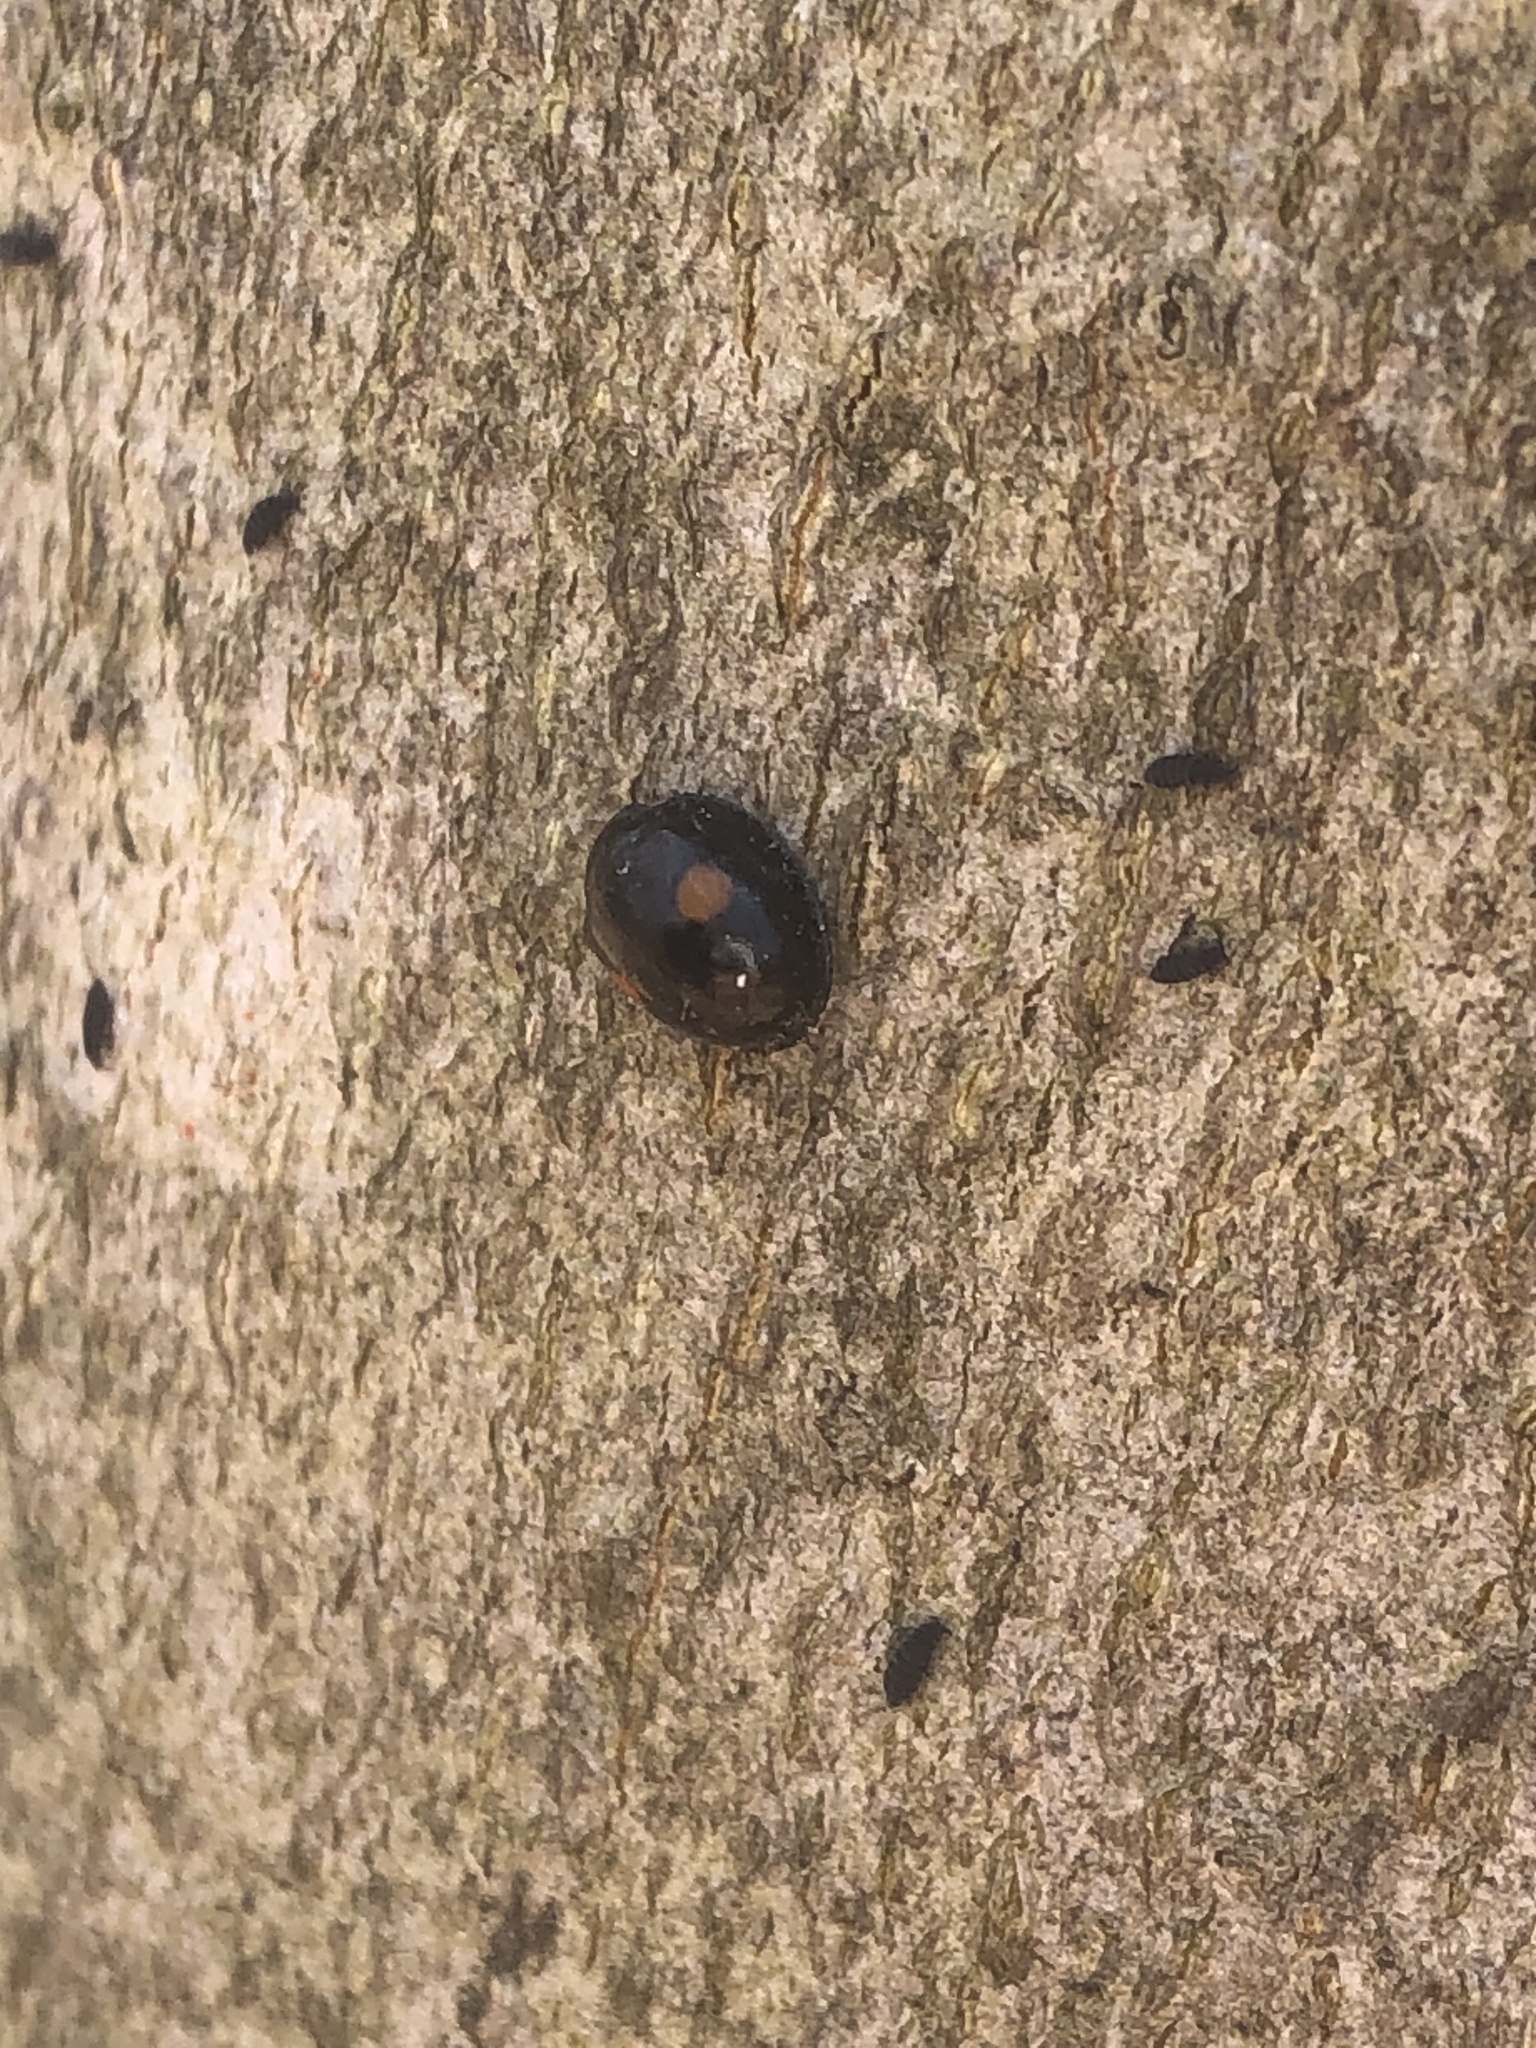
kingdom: Animalia
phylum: Arthropoda
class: Insecta
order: Coleoptera
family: Coccinellidae
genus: Chilocorus
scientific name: Chilocorus stigma
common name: Twicestabbed lady beetle
